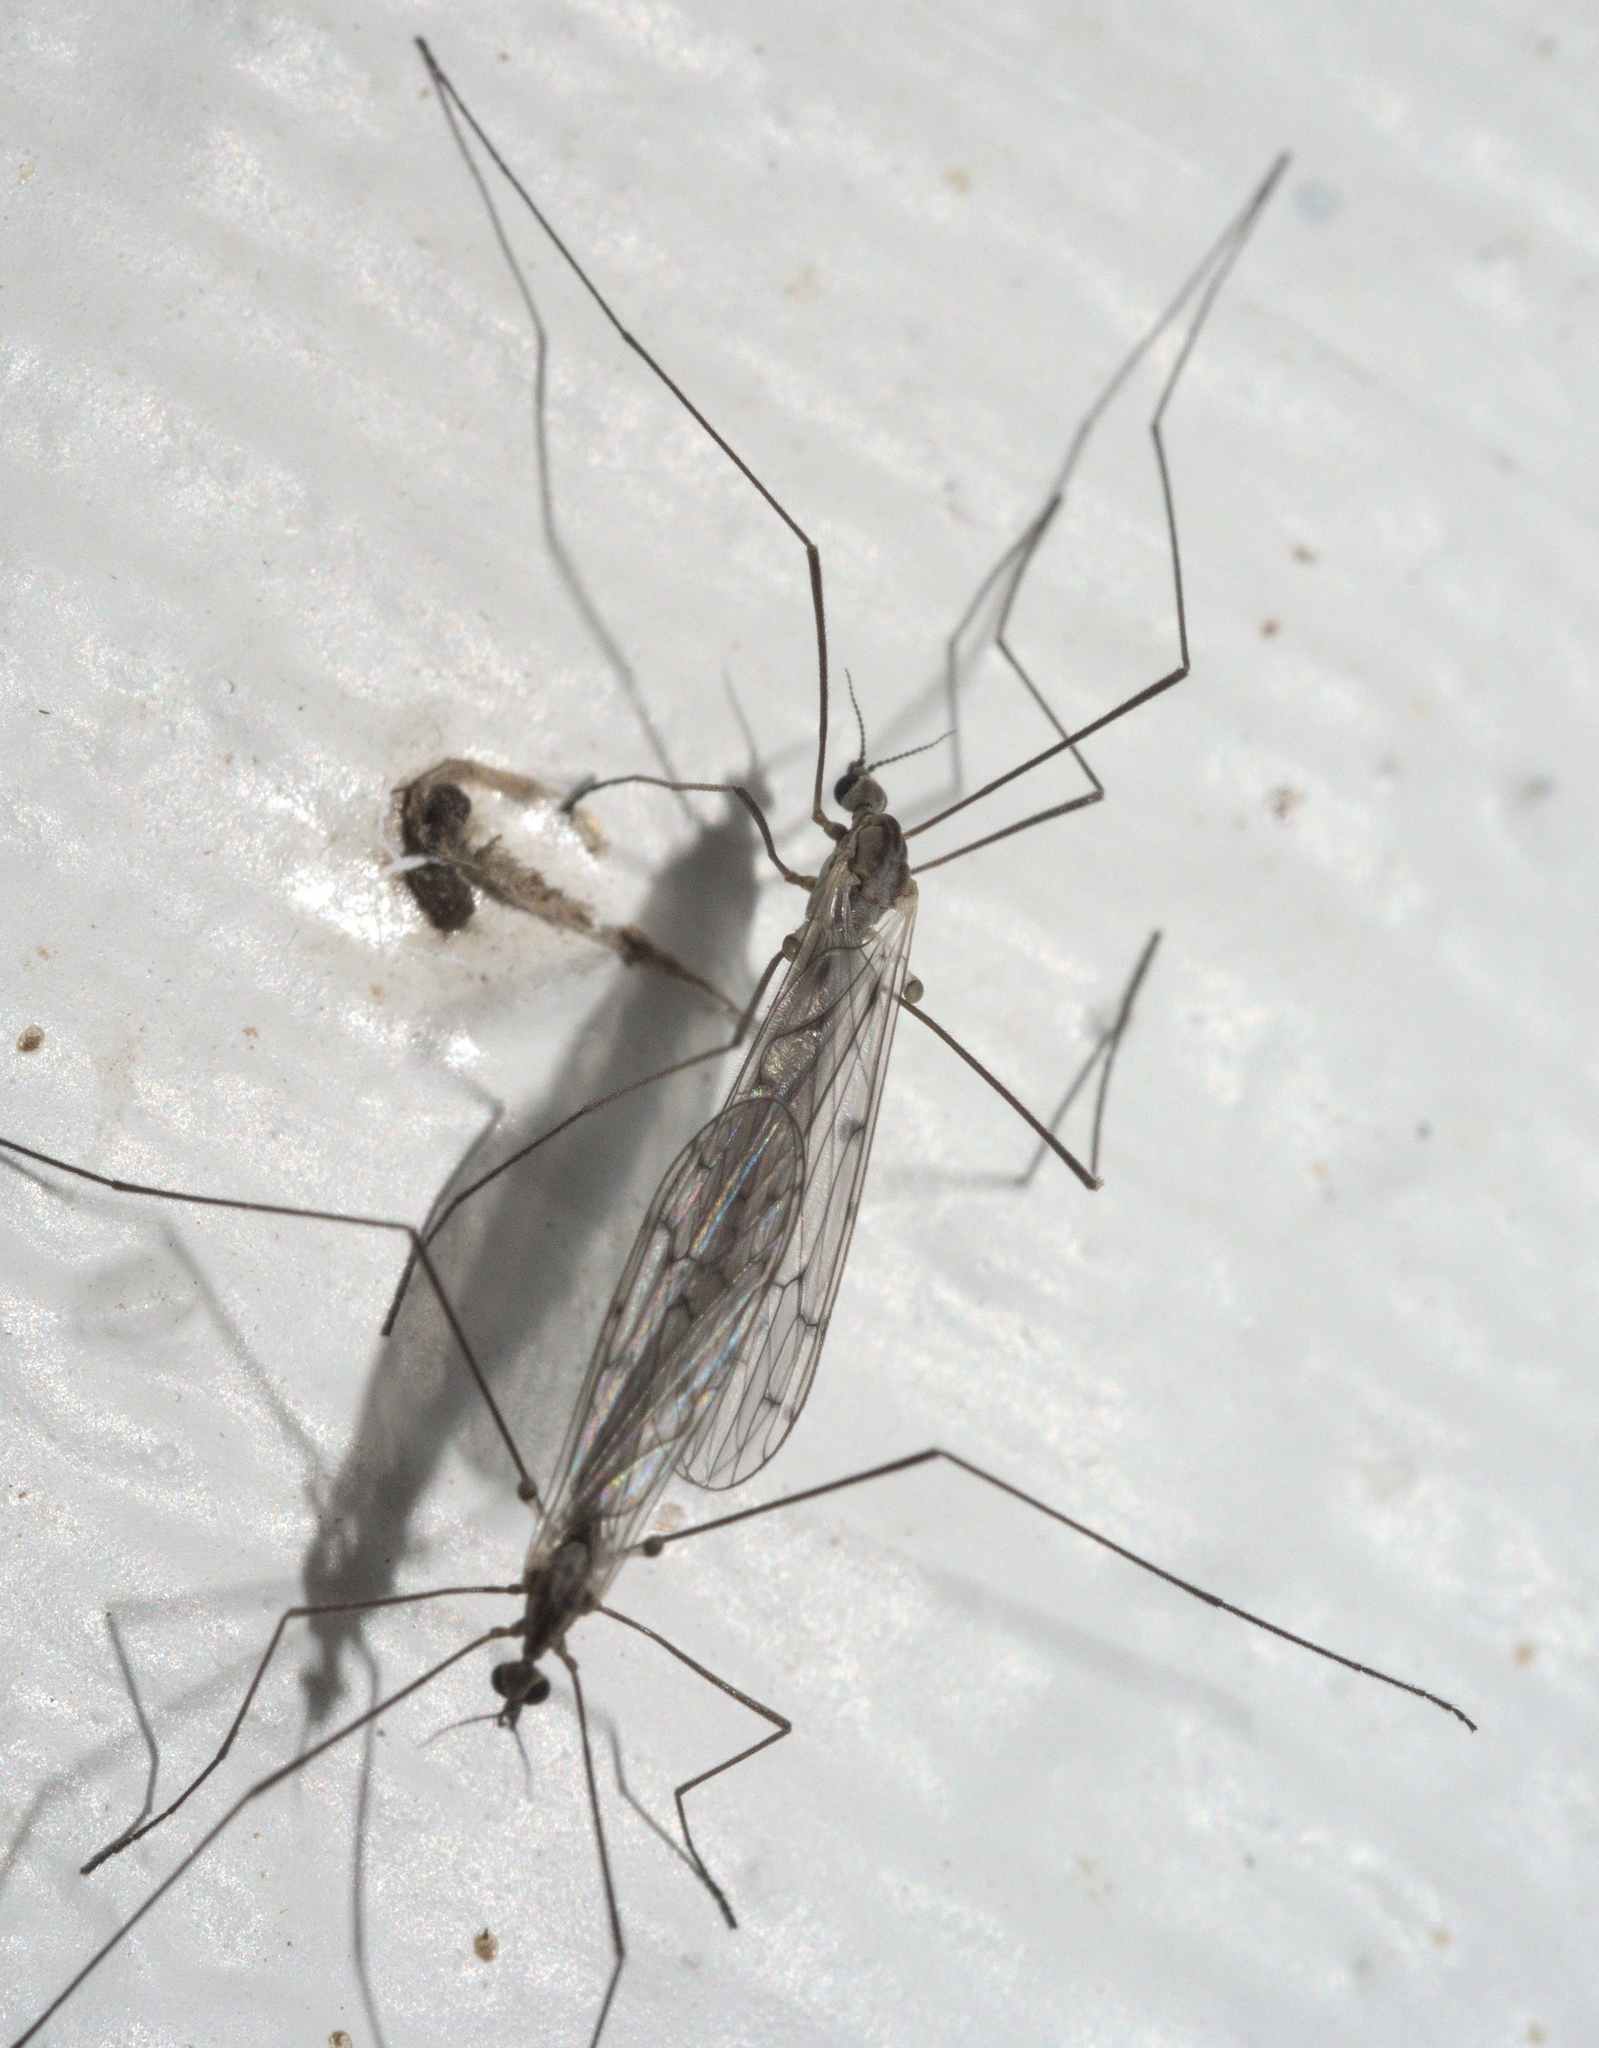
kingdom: Animalia
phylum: Arthropoda
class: Insecta
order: Diptera
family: Limoniidae
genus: Symplecta
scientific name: Symplecta cana
